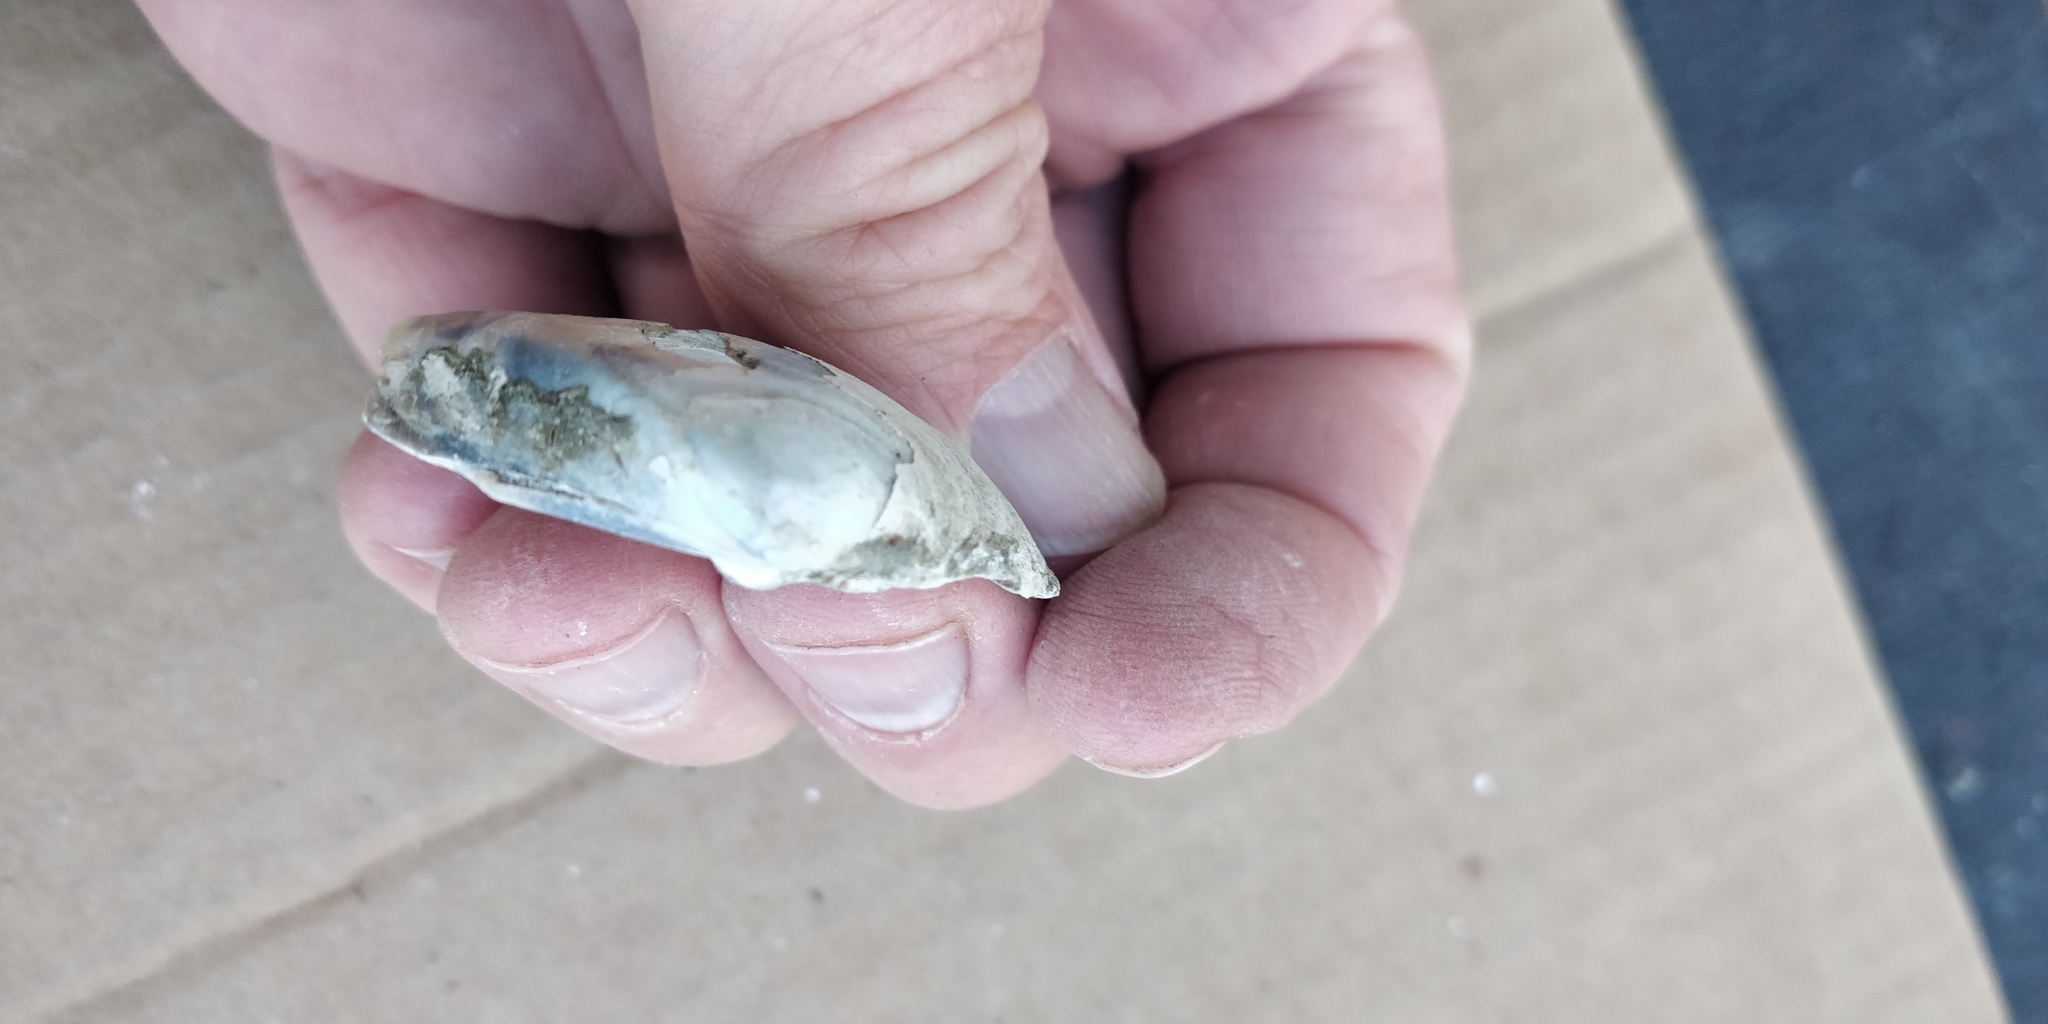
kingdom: Animalia
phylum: Mollusca
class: Bivalvia
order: Unionida
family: Unionidae
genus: Truncilla
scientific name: Truncilla truncata
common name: Deertoe
